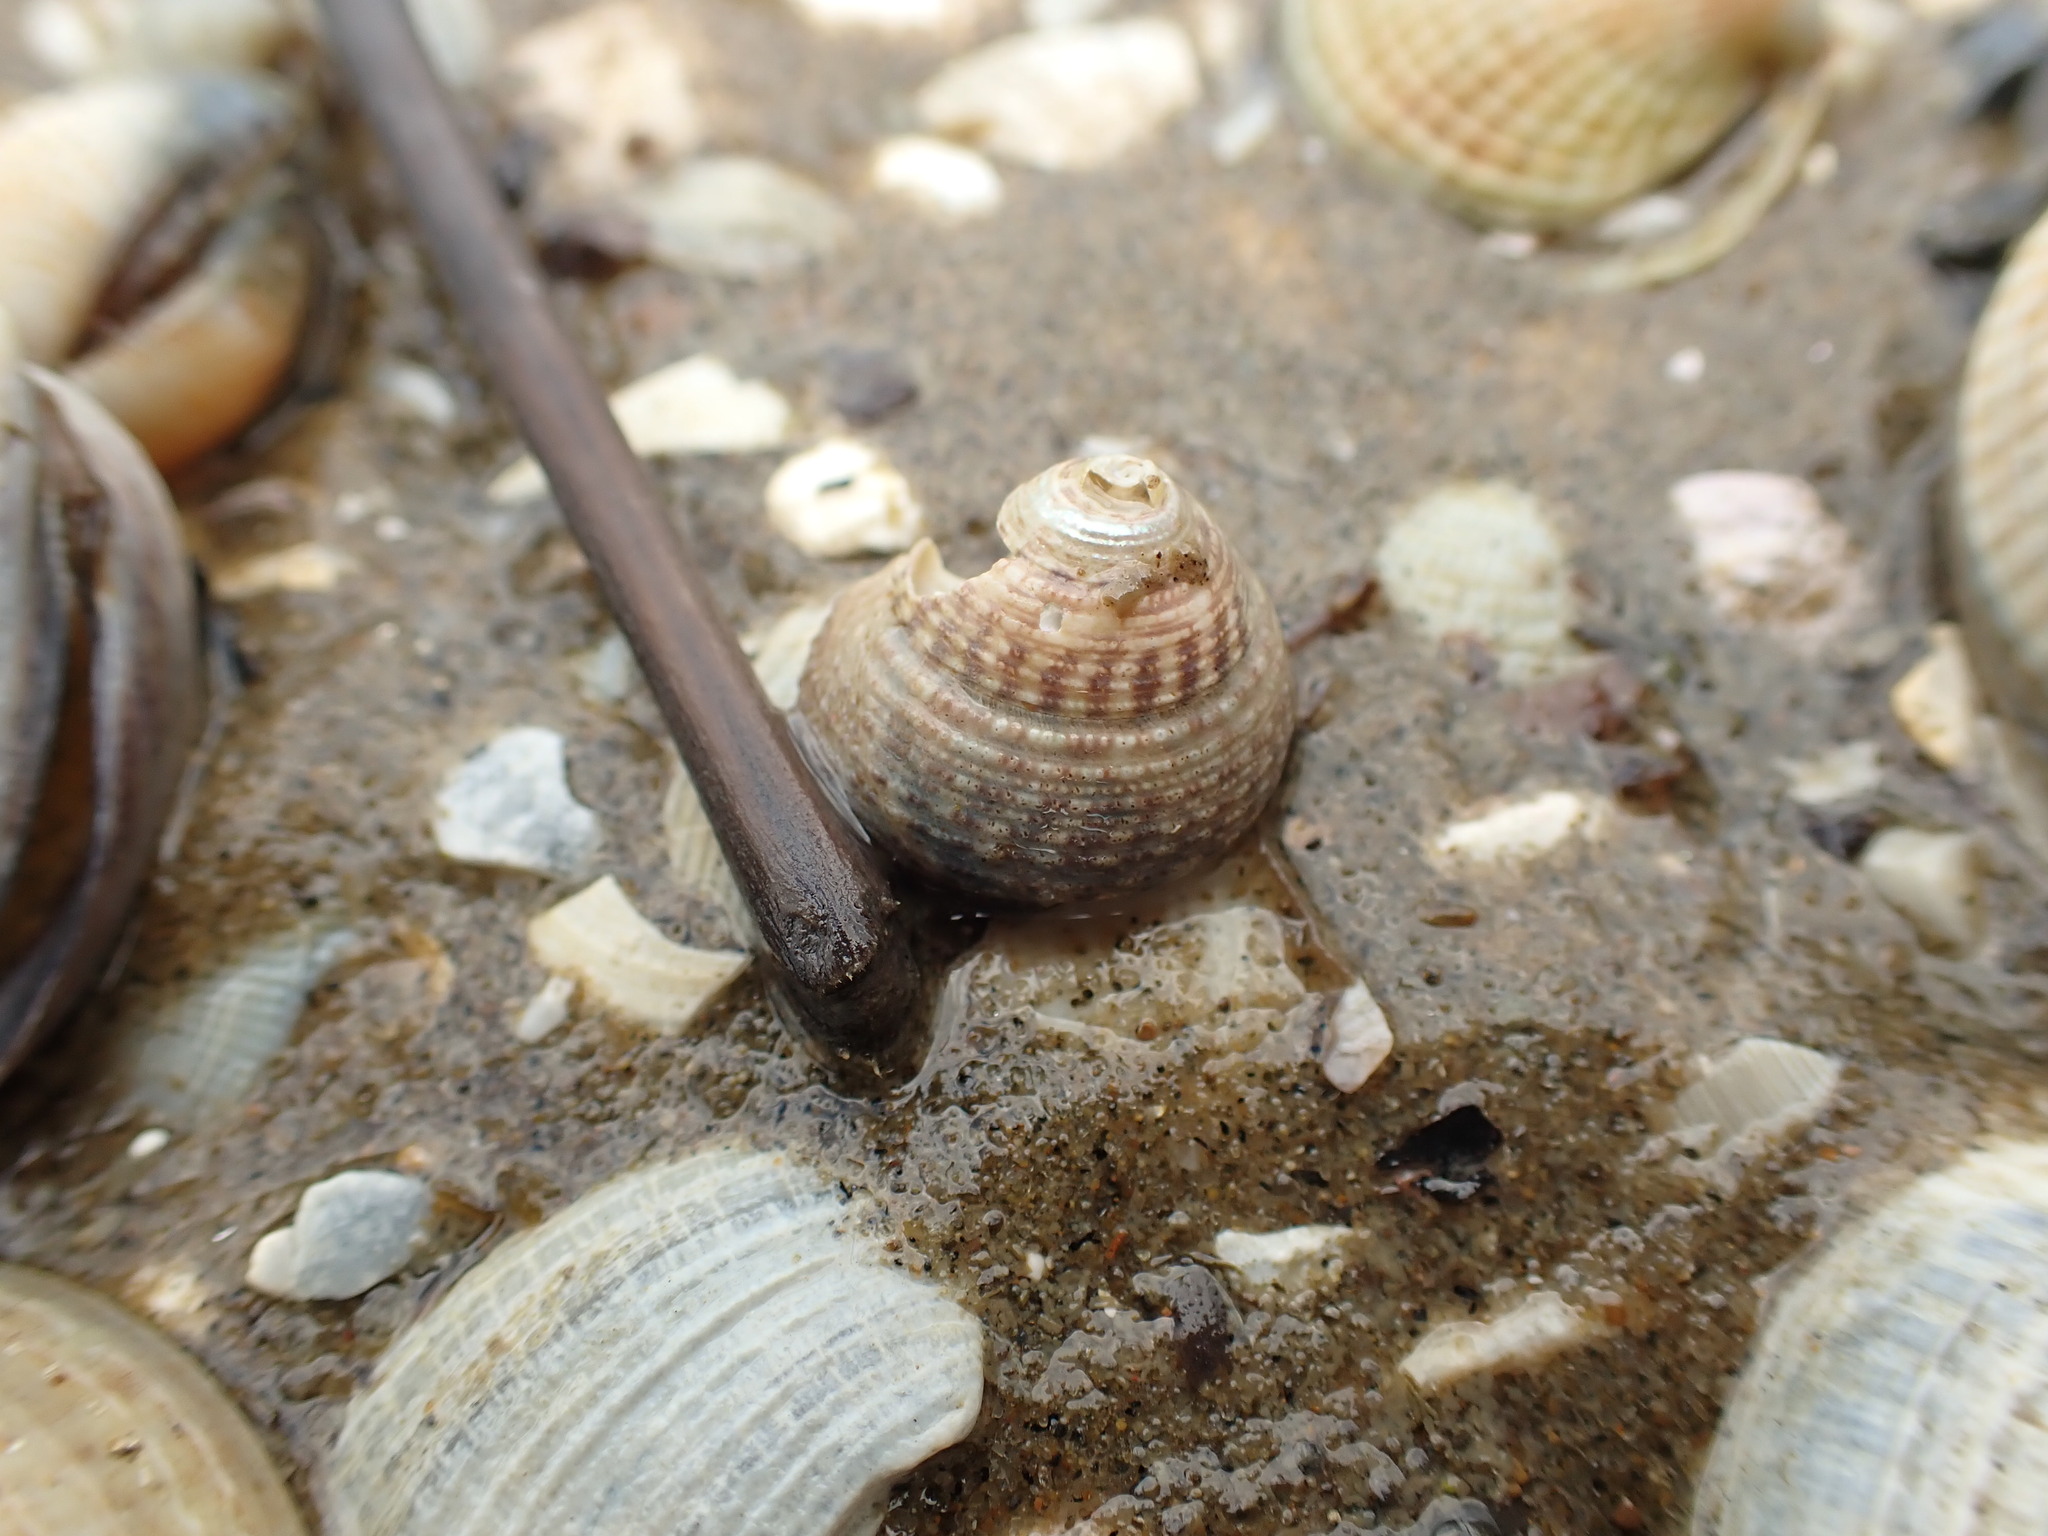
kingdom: Animalia
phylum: Mollusca
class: Gastropoda
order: Trochida
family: Trochidae
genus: Coelotrochus
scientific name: Coelotrochus tiaratus
